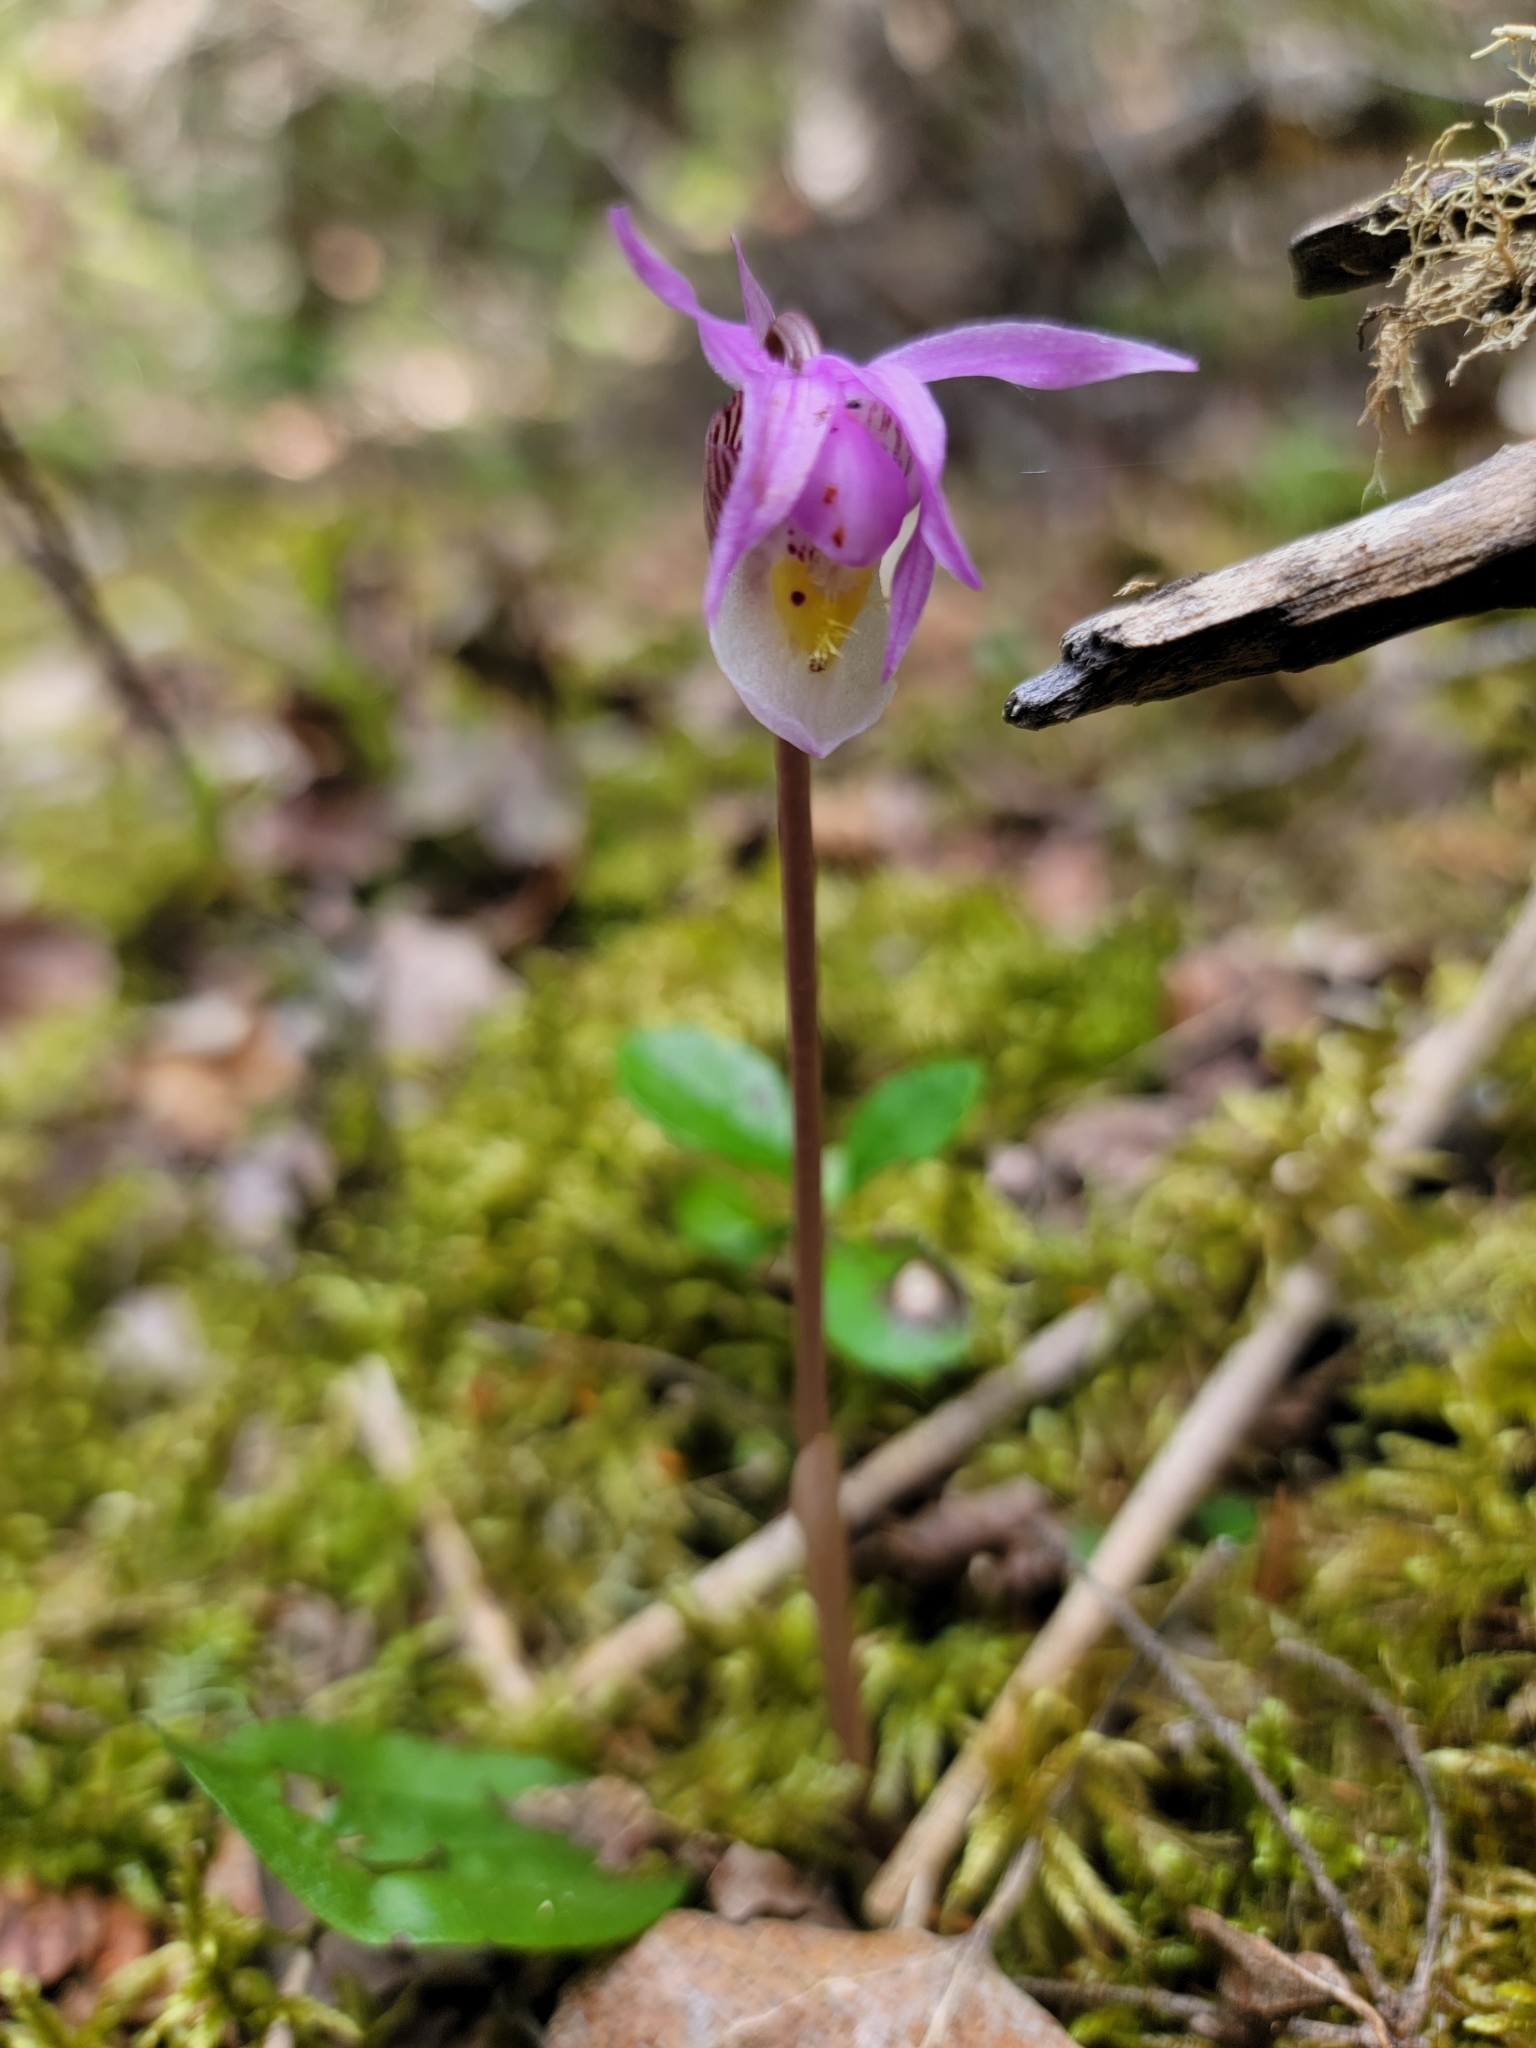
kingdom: Plantae
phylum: Tracheophyta
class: Liliopsida
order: Asparagales
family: Orchidaceae
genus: Calypso
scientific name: Calypso bulbosa
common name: Calypso
